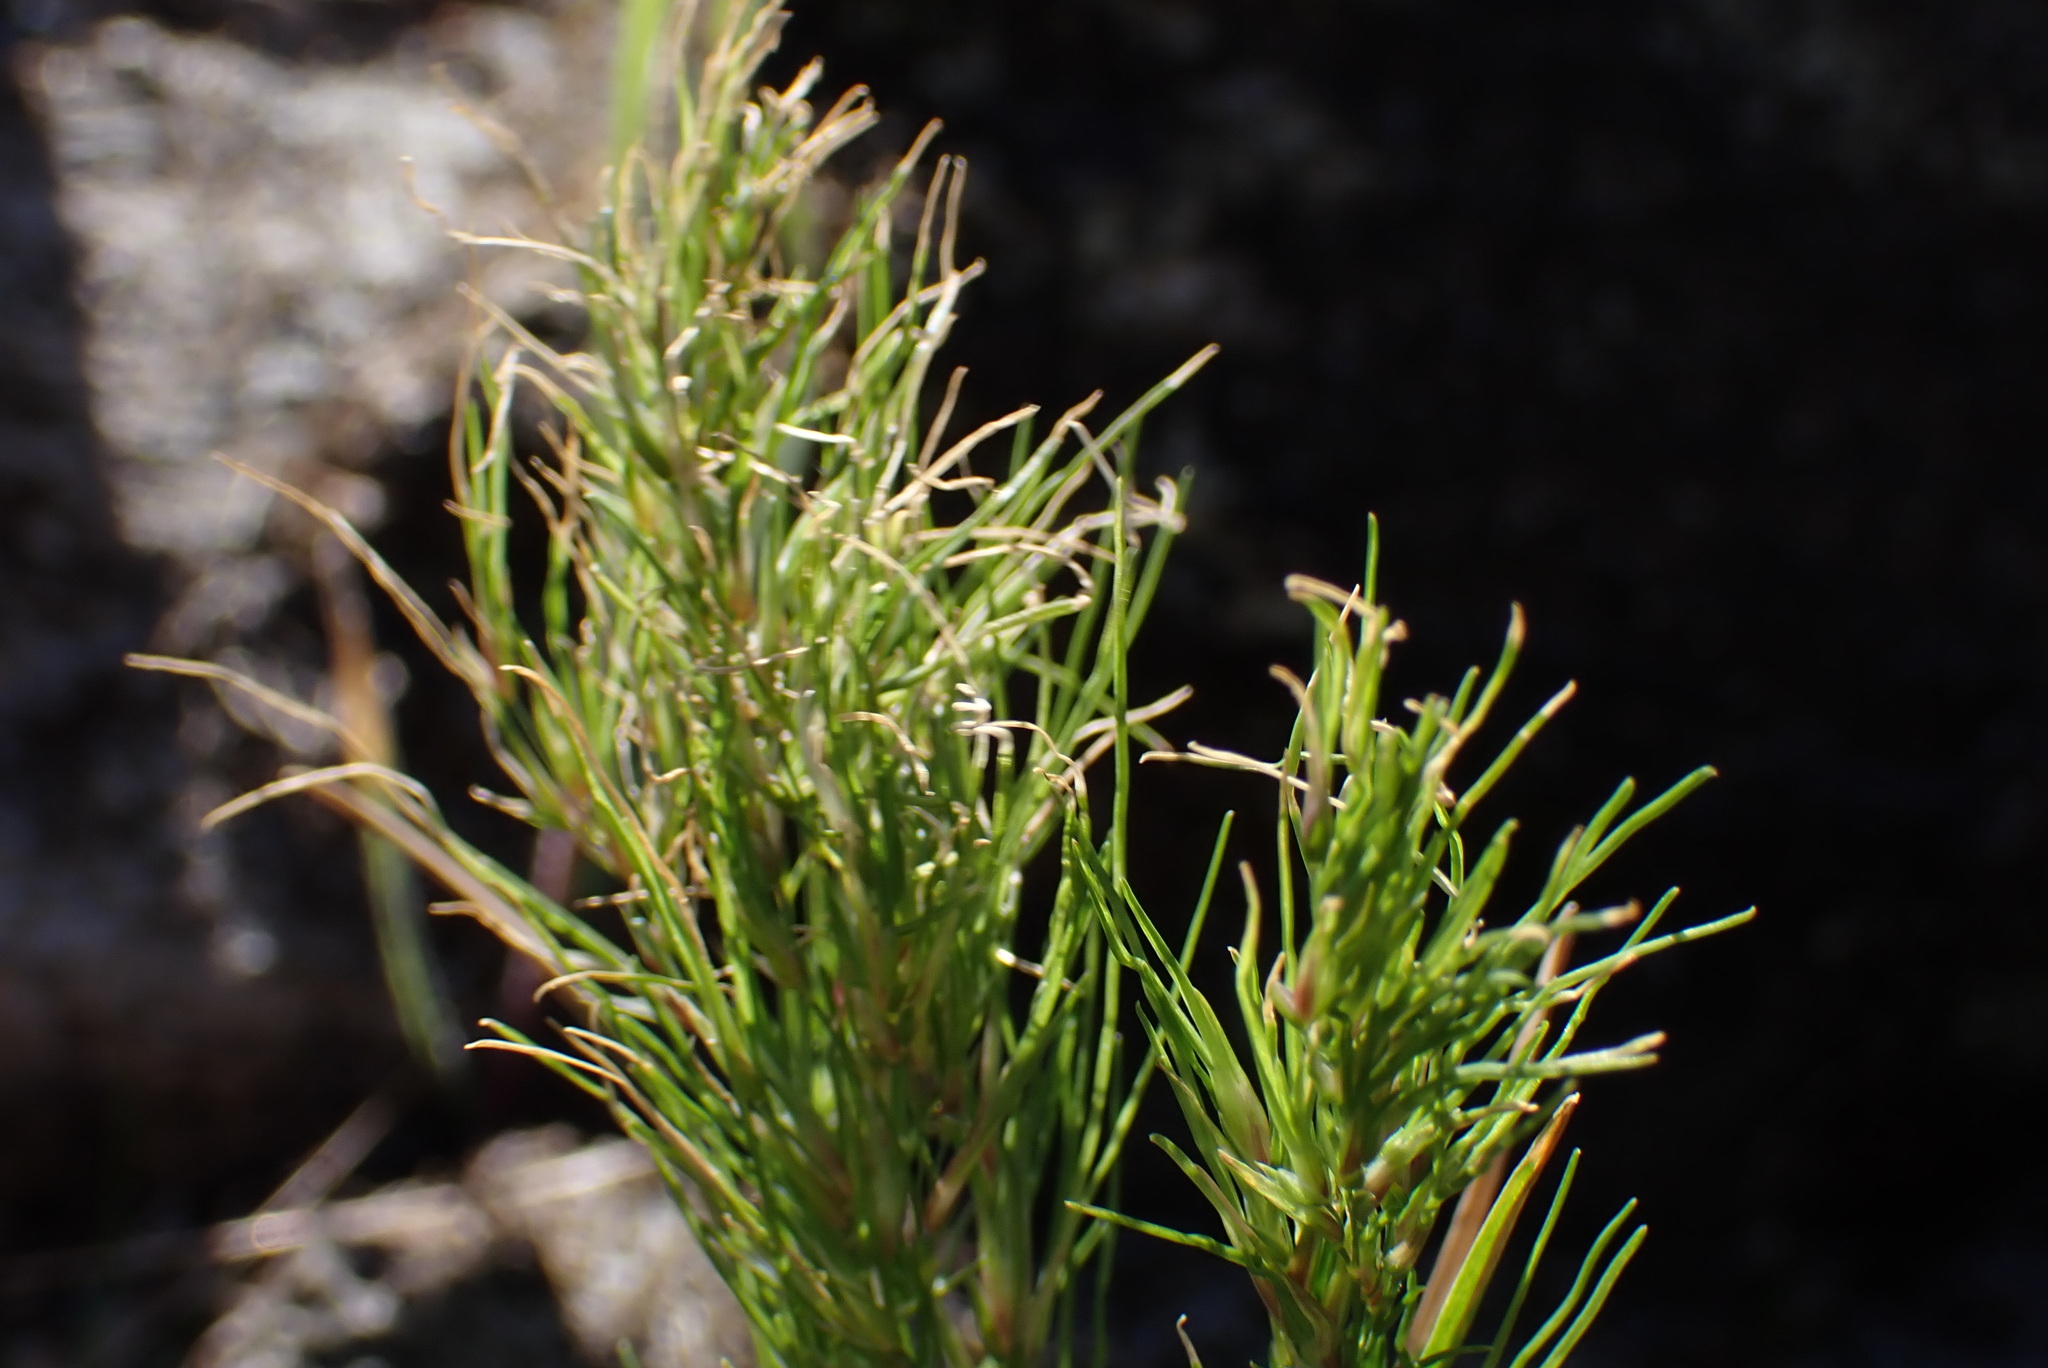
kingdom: Plantae
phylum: Tracheophyta
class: Liliopsida
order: Poales
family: Poaceae
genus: Poa
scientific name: Poa bulbosa
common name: Bulbous bluegrass
